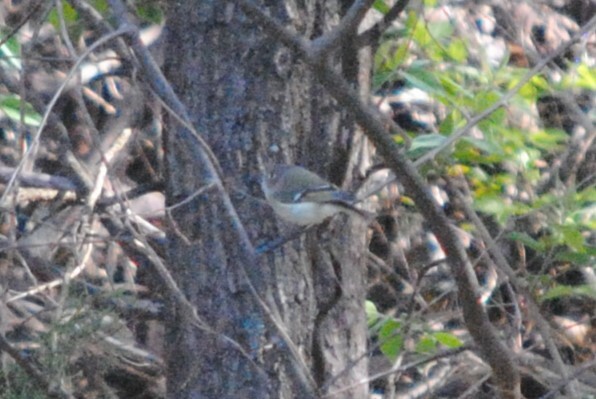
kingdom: Animalia
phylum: Chordata
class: Aves
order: Passeriformes
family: Regulidae
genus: Regulus
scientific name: Regulus calendula
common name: Ruby-crowned kinglet
